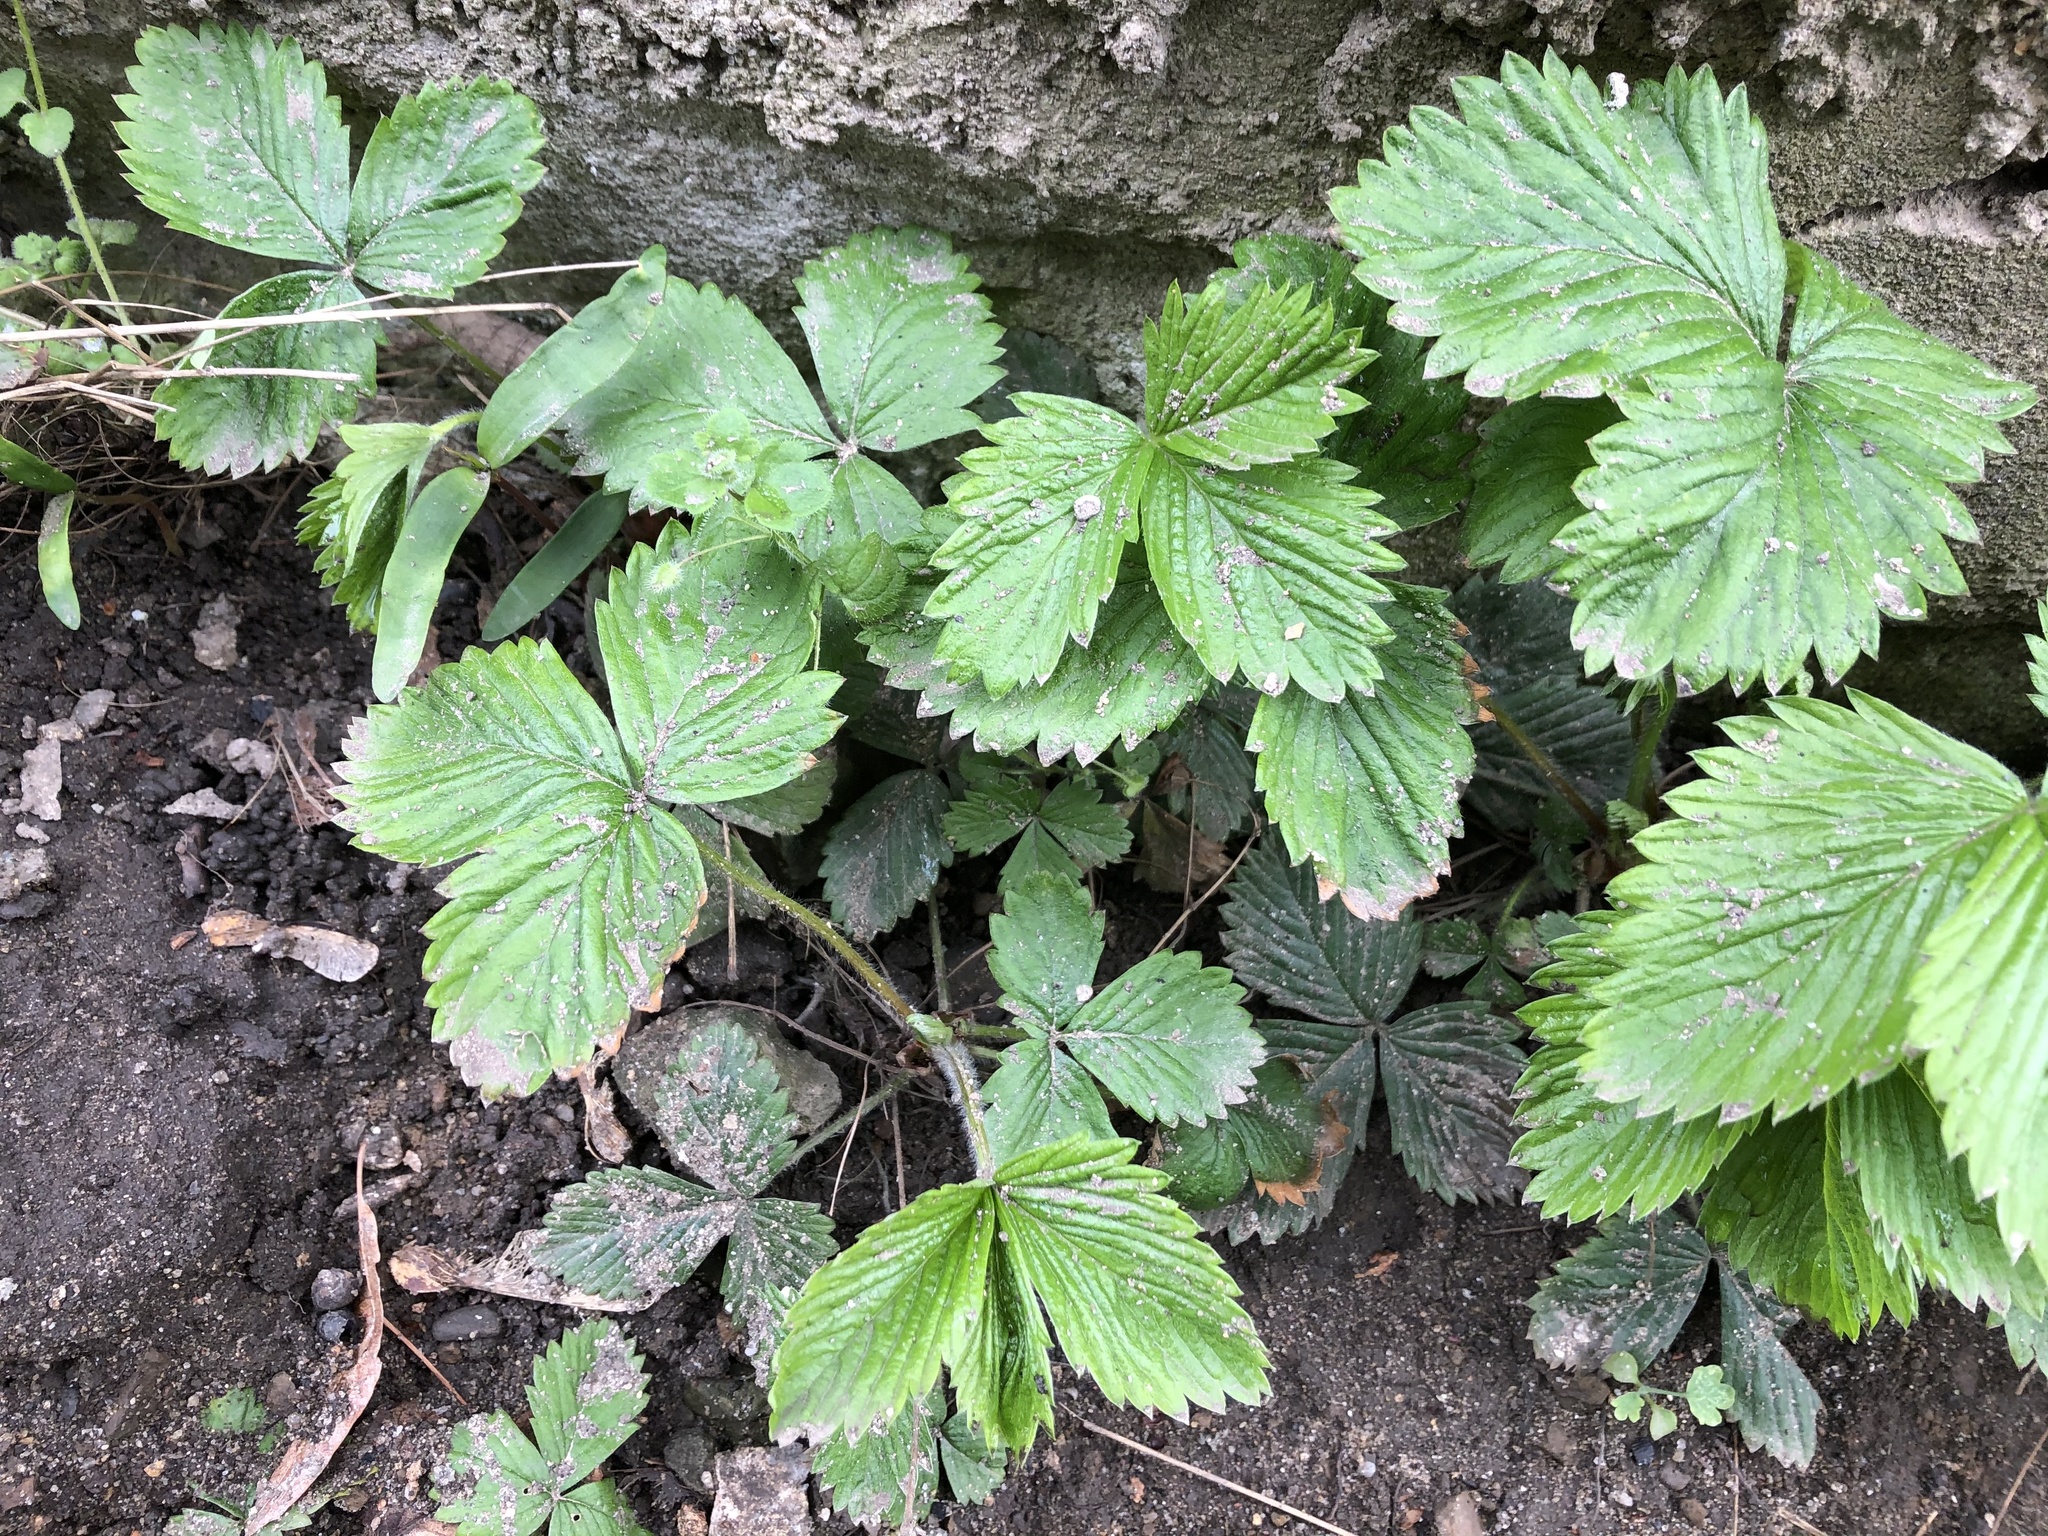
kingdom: Plantae
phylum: Tracheophyta
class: Magnoliopsida
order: Rosales
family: Rosaceae
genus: Fragaria
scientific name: Fragaria vesca
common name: Wild strawberry
